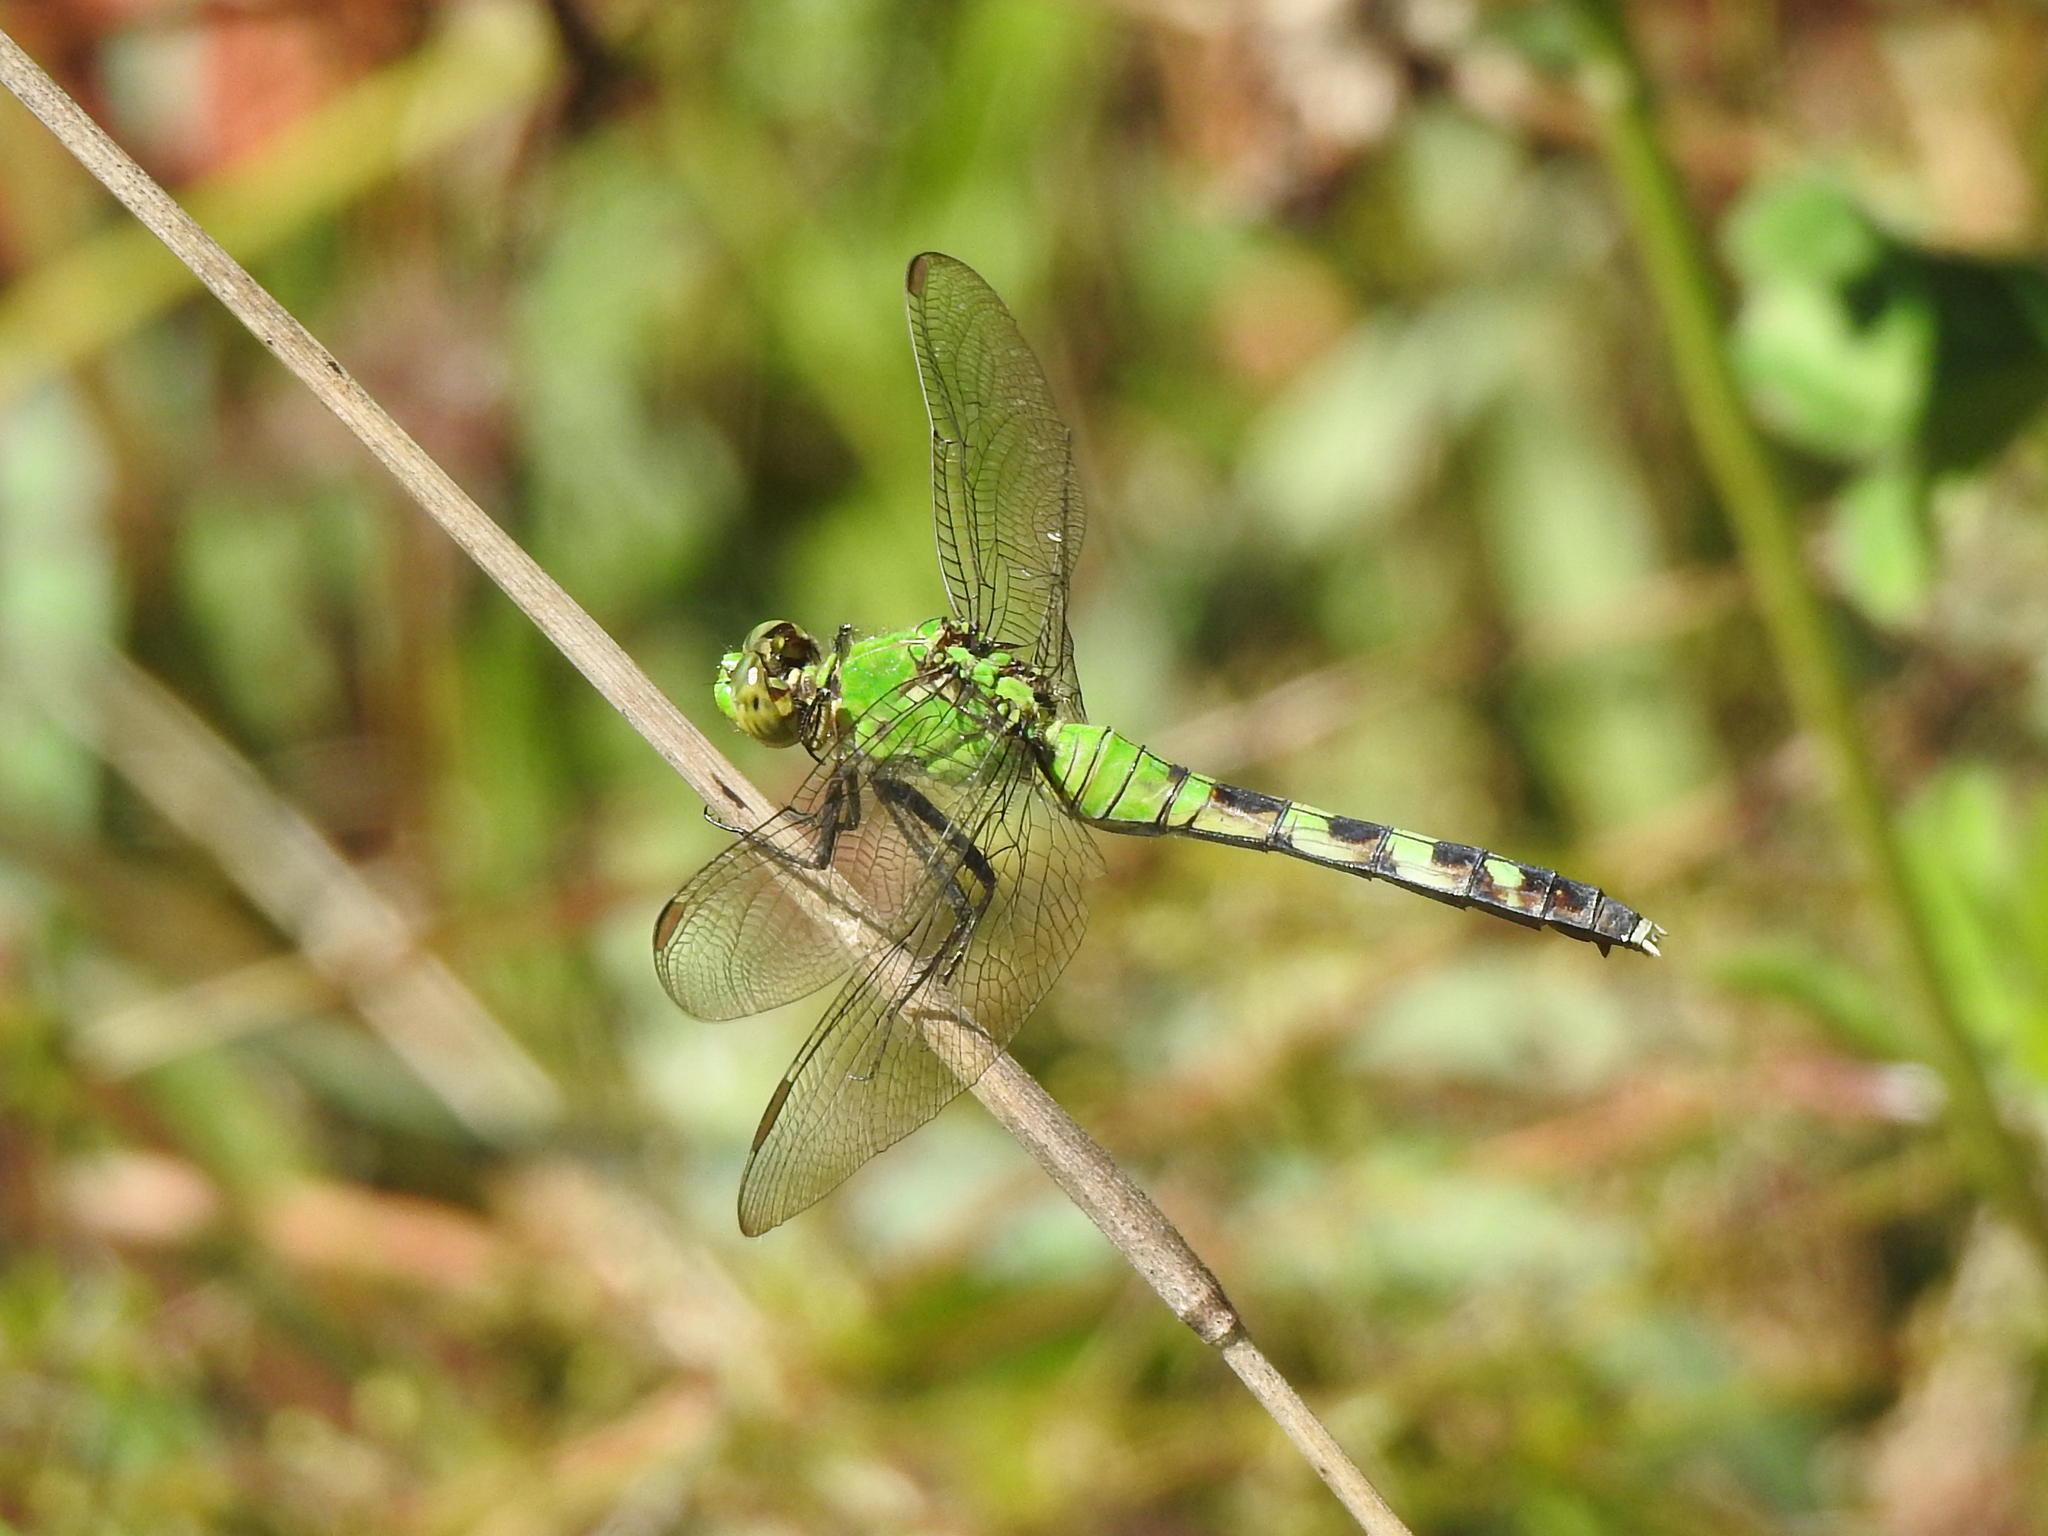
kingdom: Animalia
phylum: Arthropoda
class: Insecta
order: Odonata
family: Libellulidae
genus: Erythemis
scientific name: Erythemis simplicicollis
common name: Eastern pondhawk
